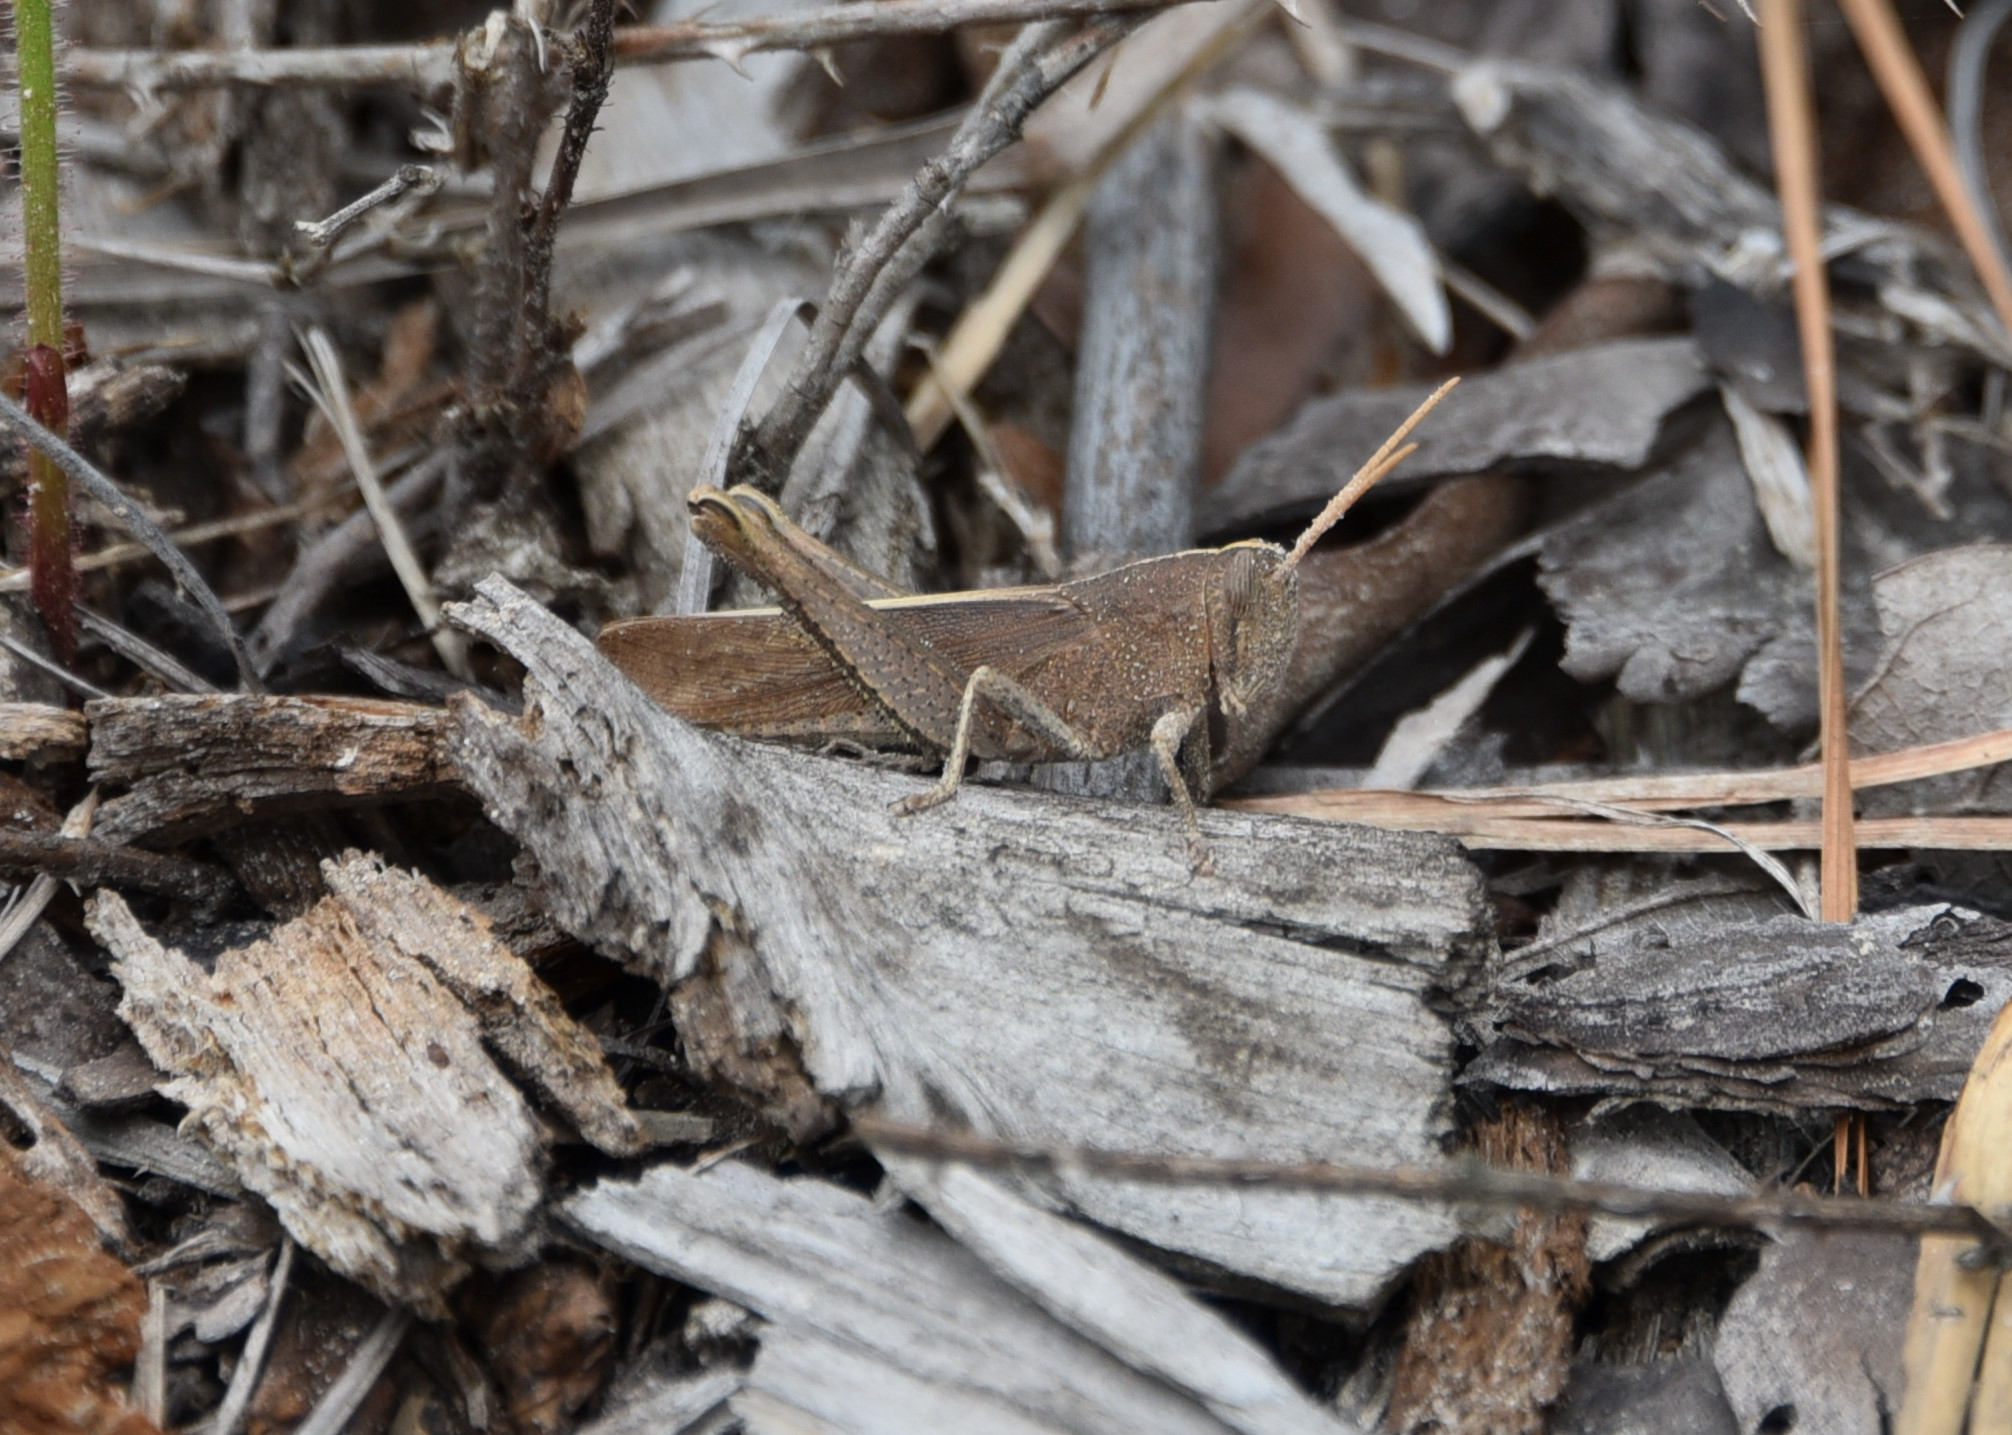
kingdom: Animalia
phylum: Arthropoda
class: Insecta
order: Orthoptera
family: Acrididae
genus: Schistocerca
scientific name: Schistocerca damnifica
